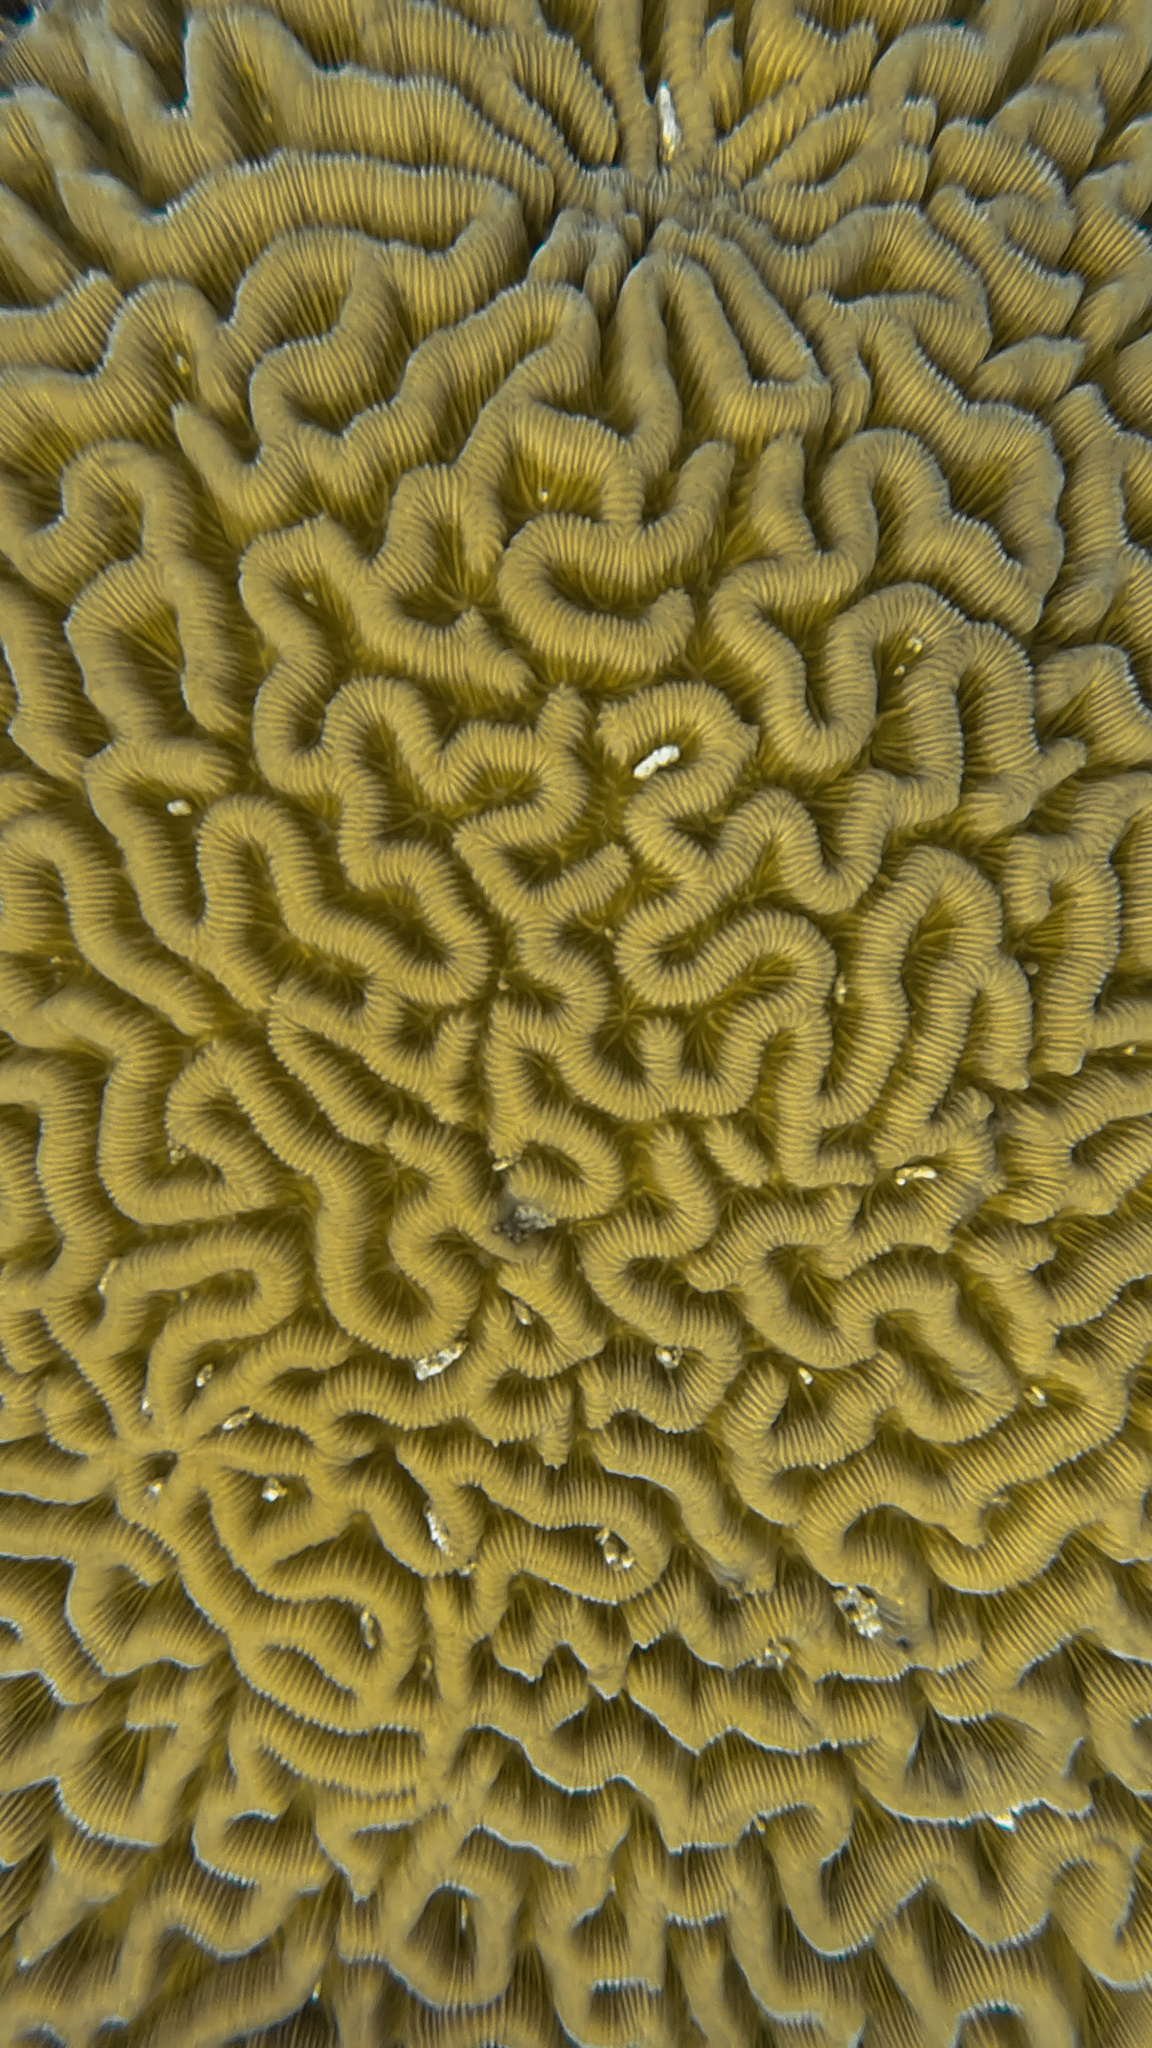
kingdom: Animalia
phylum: Cnidaria
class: Anthozoa
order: Scleractinia
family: Faviidae
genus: Colpophyllia
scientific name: Colpophyllia natans
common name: Boulder brain coral
